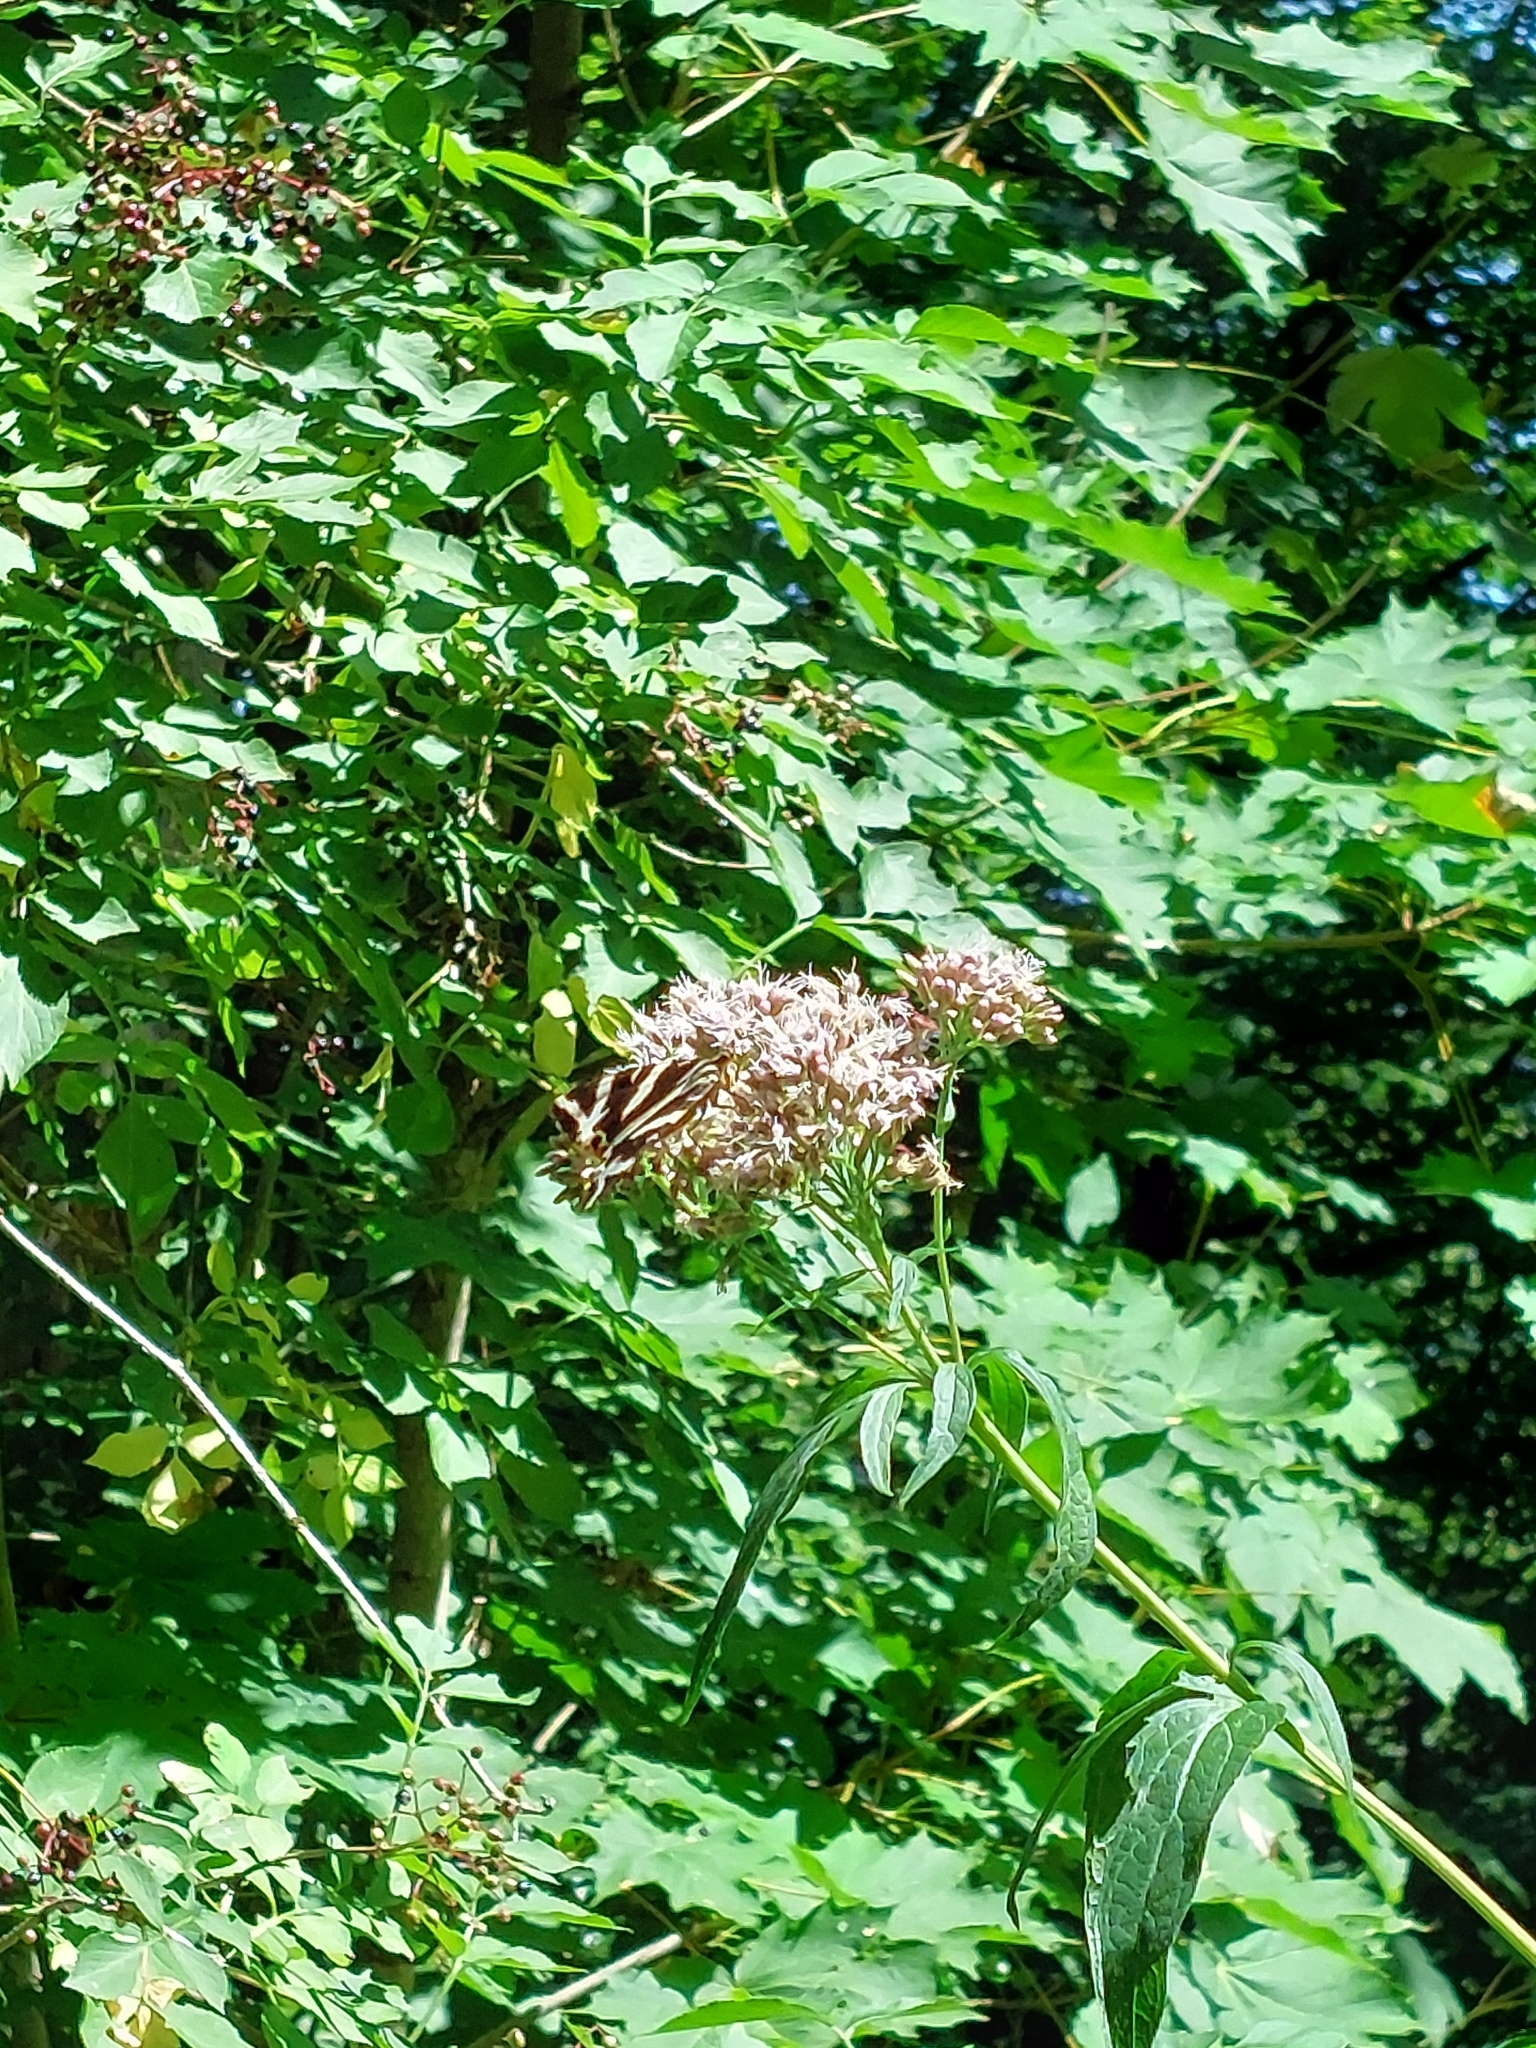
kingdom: Animalia
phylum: Arthropoda
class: Insecta
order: Lepidoptera
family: Erebidae
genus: Euplagia
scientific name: Euplagia quadripunctaria
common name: Jersey tiger
